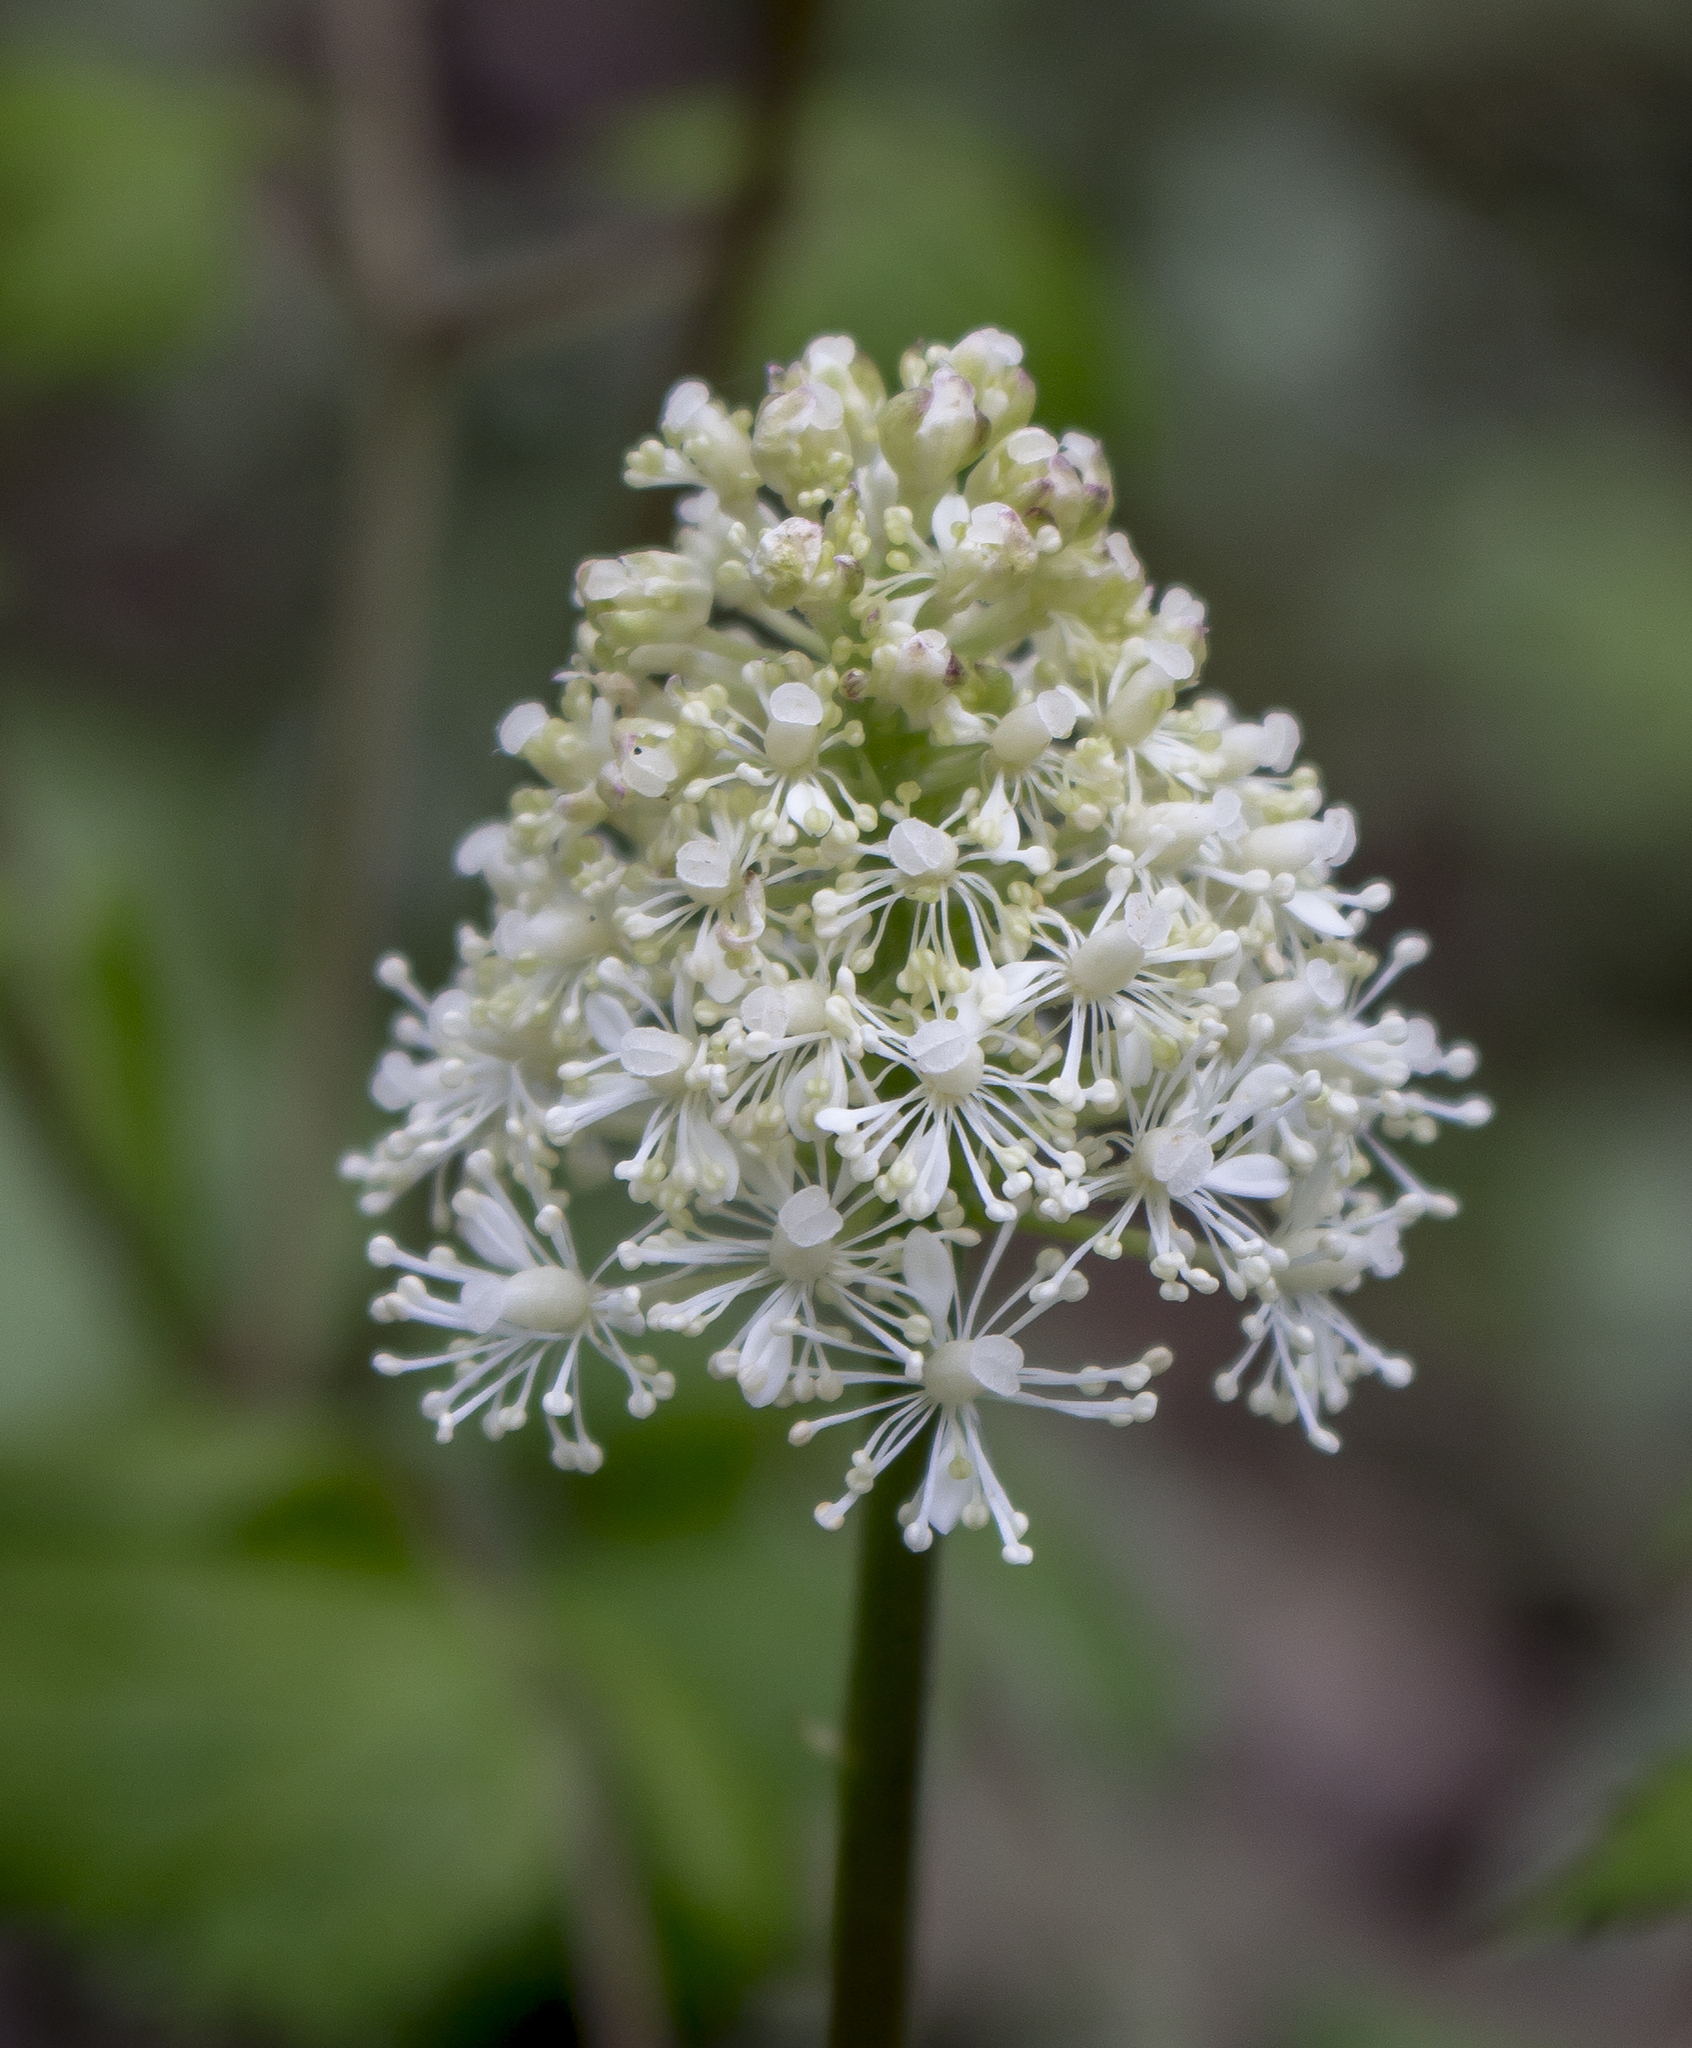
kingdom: Plantae
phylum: Tracheophyta
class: Magnoliopsida
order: Ranunculales
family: Ranunculaceae
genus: Actaea
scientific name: Actaea rubra
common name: Red baneberry
